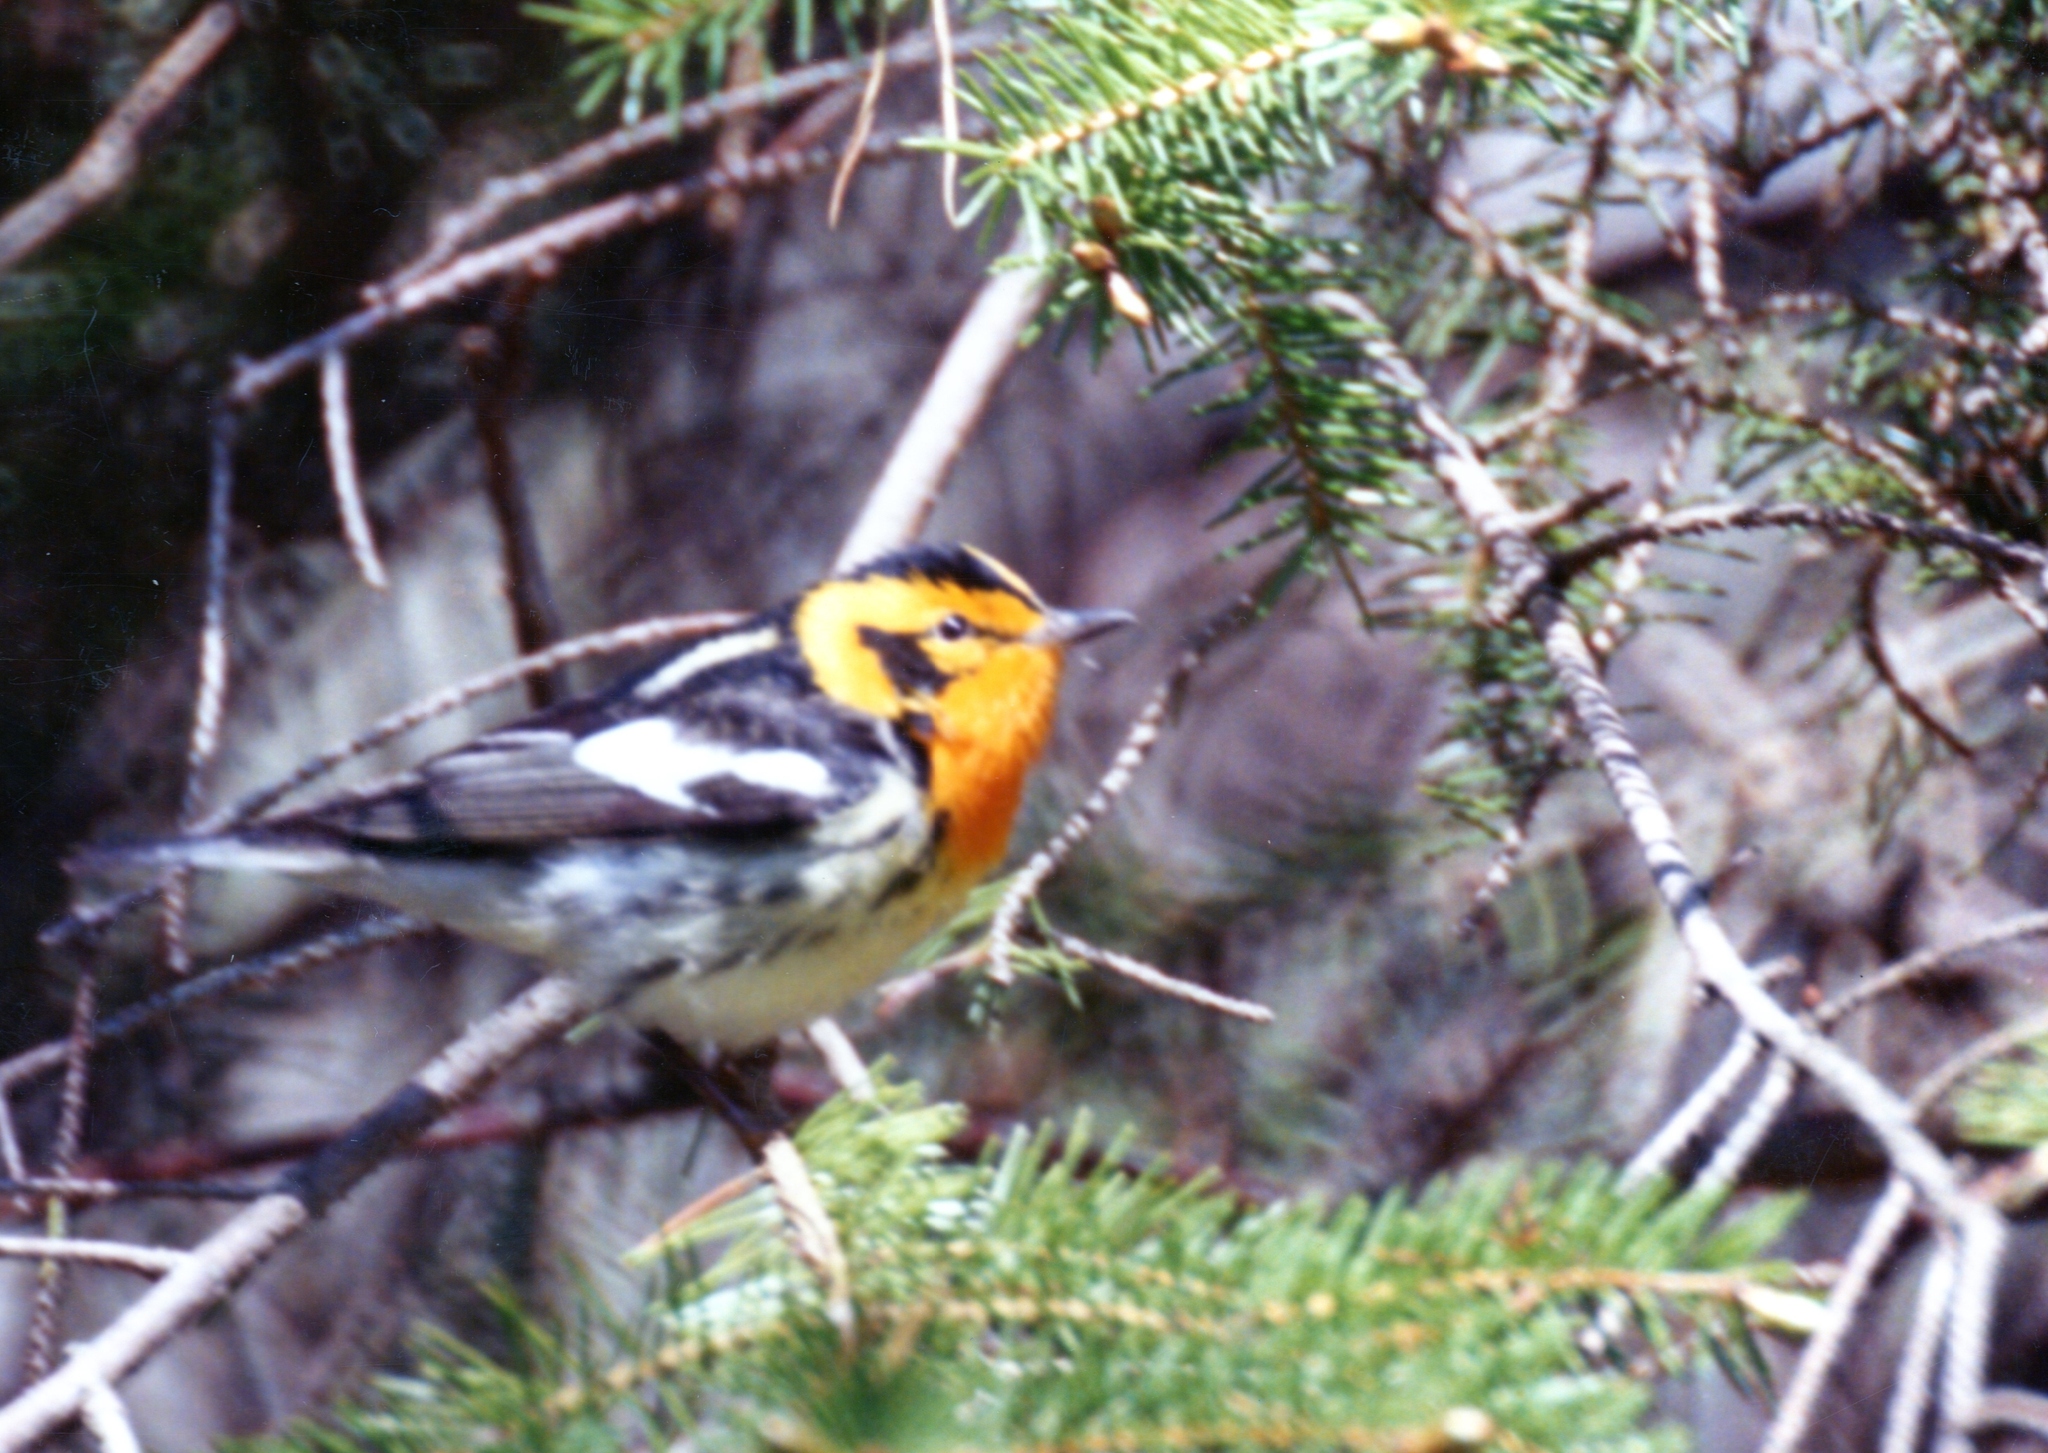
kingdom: Animalia
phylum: Chordata
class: Aves
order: Passeriformes
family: Parulidae
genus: Setophaga
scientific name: Setophaga fusca
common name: Blackburnian warbler
